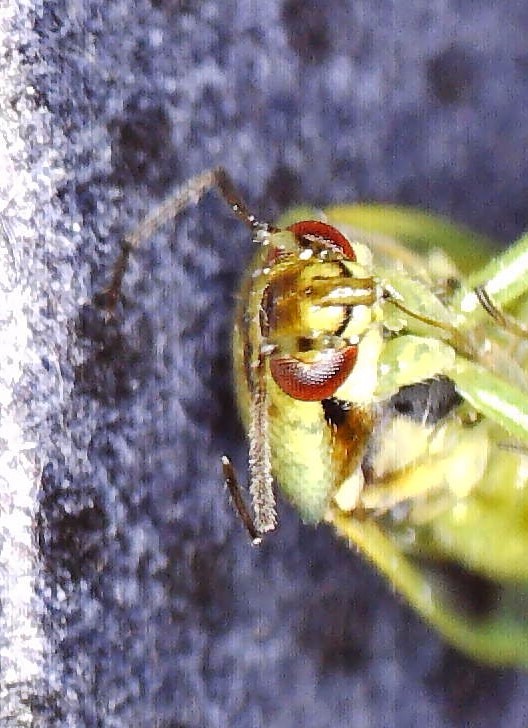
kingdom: Animalia
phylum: Arthropoda
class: Insecta
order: Hemiptera
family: Miridae
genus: Orthops
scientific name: Orthops campestris
